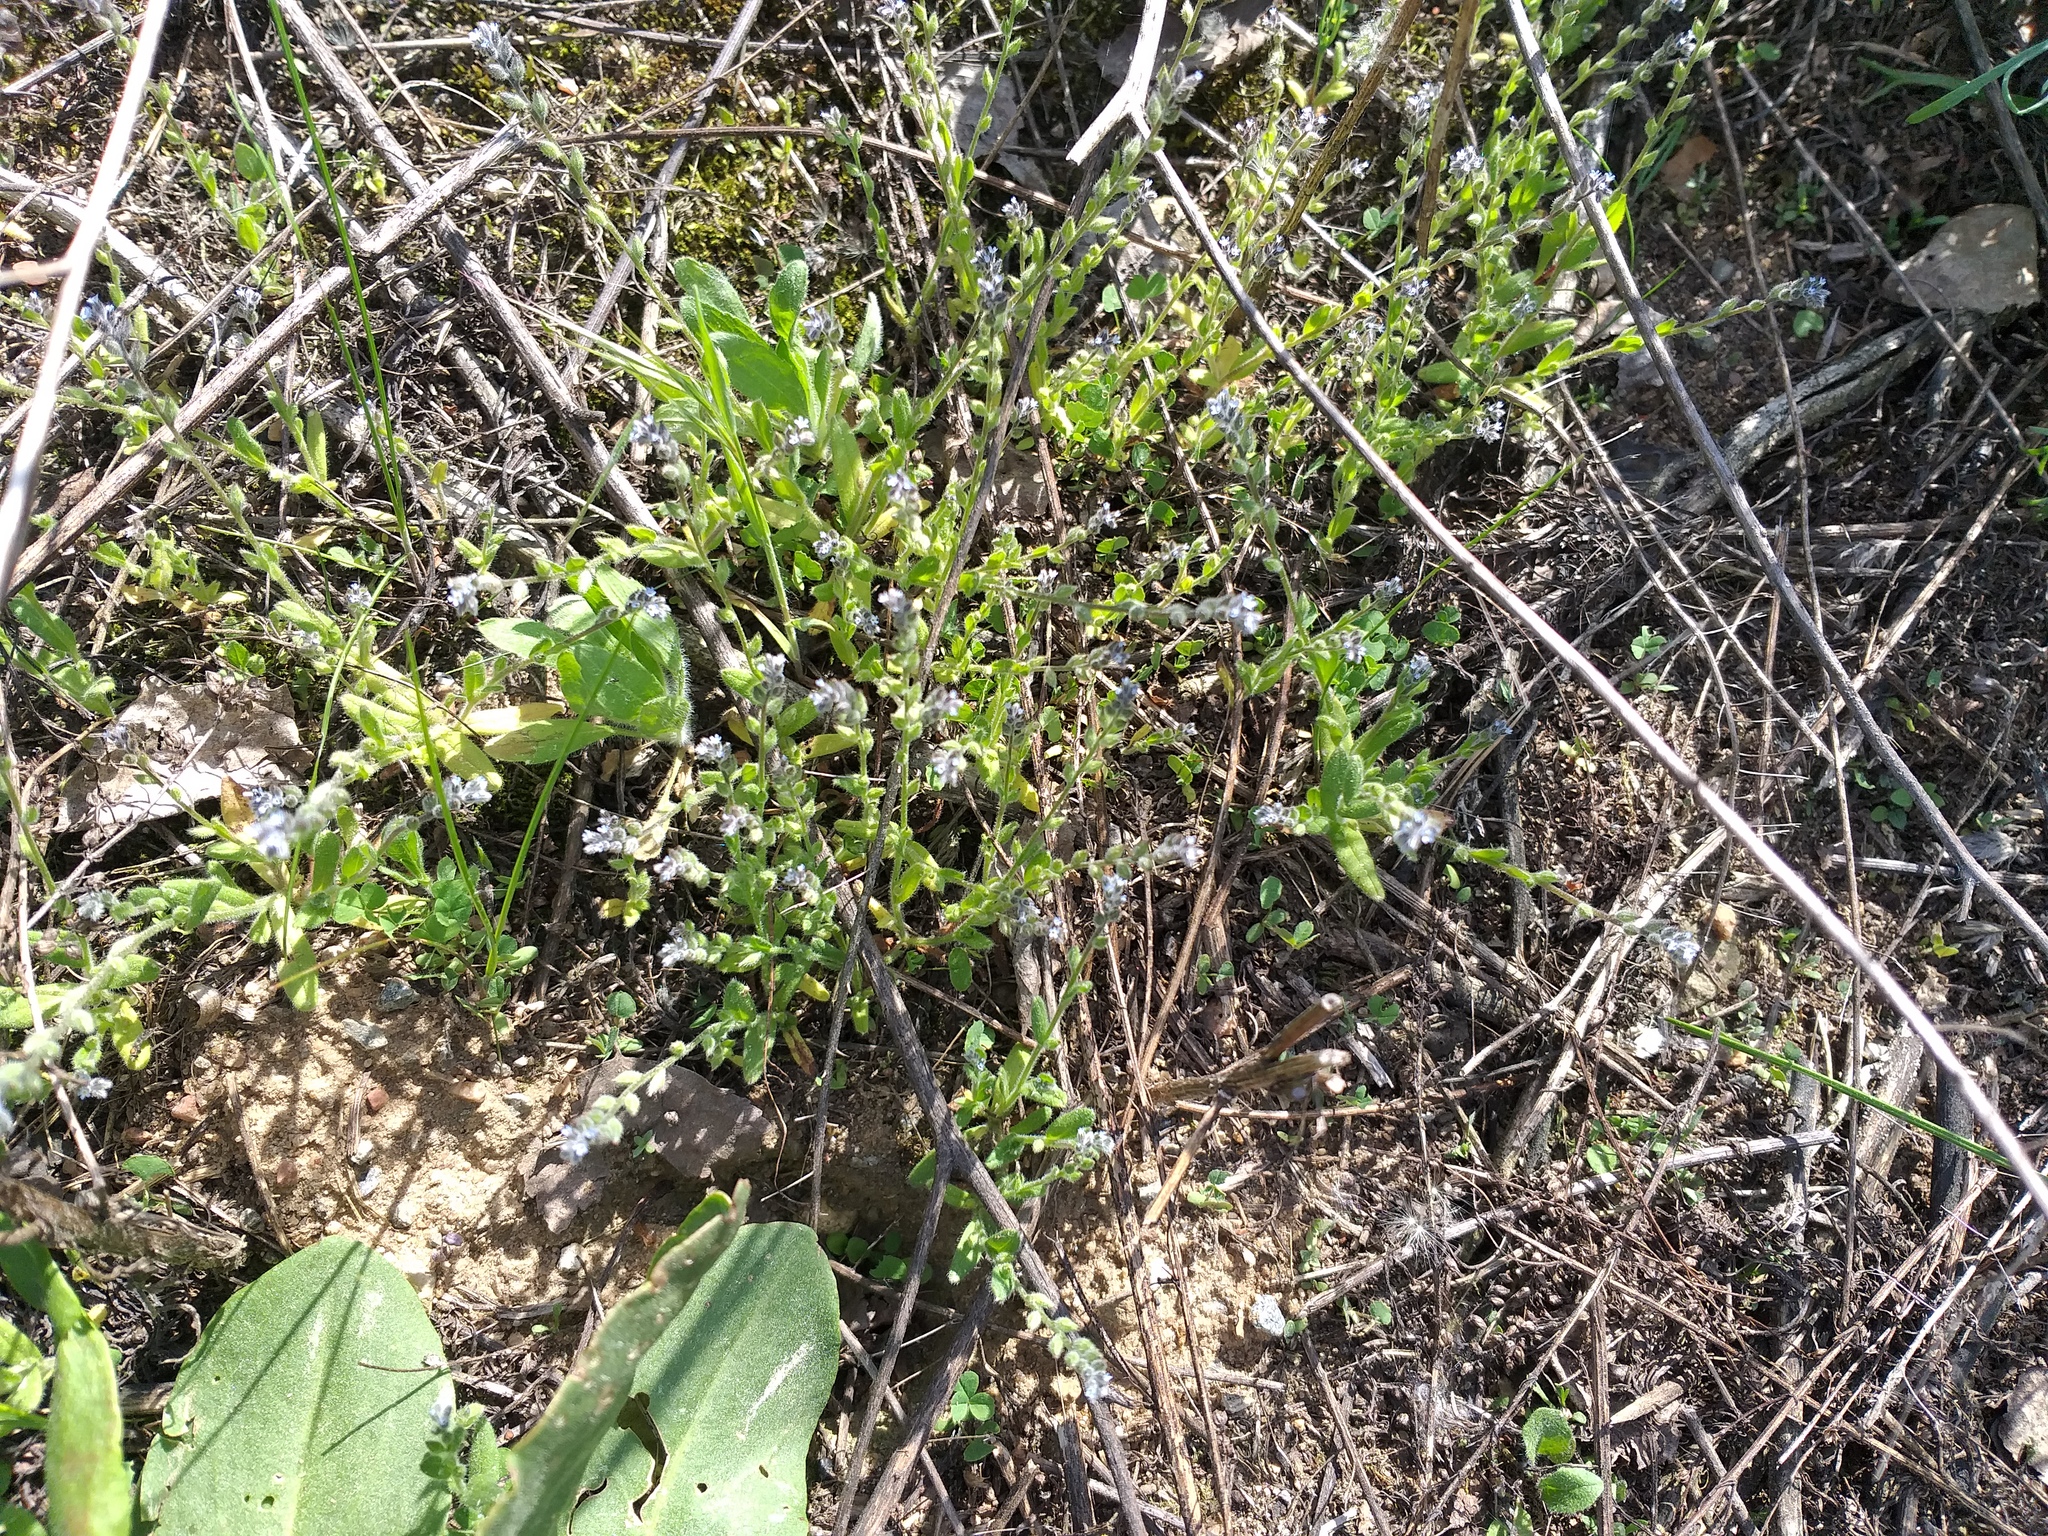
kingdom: Plantae
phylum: Tracheophyta
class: Magnoliopsida
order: Boraginales
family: Boraginaceae
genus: Myosotis
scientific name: Myosotis stricta
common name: Strict forget-me-not
